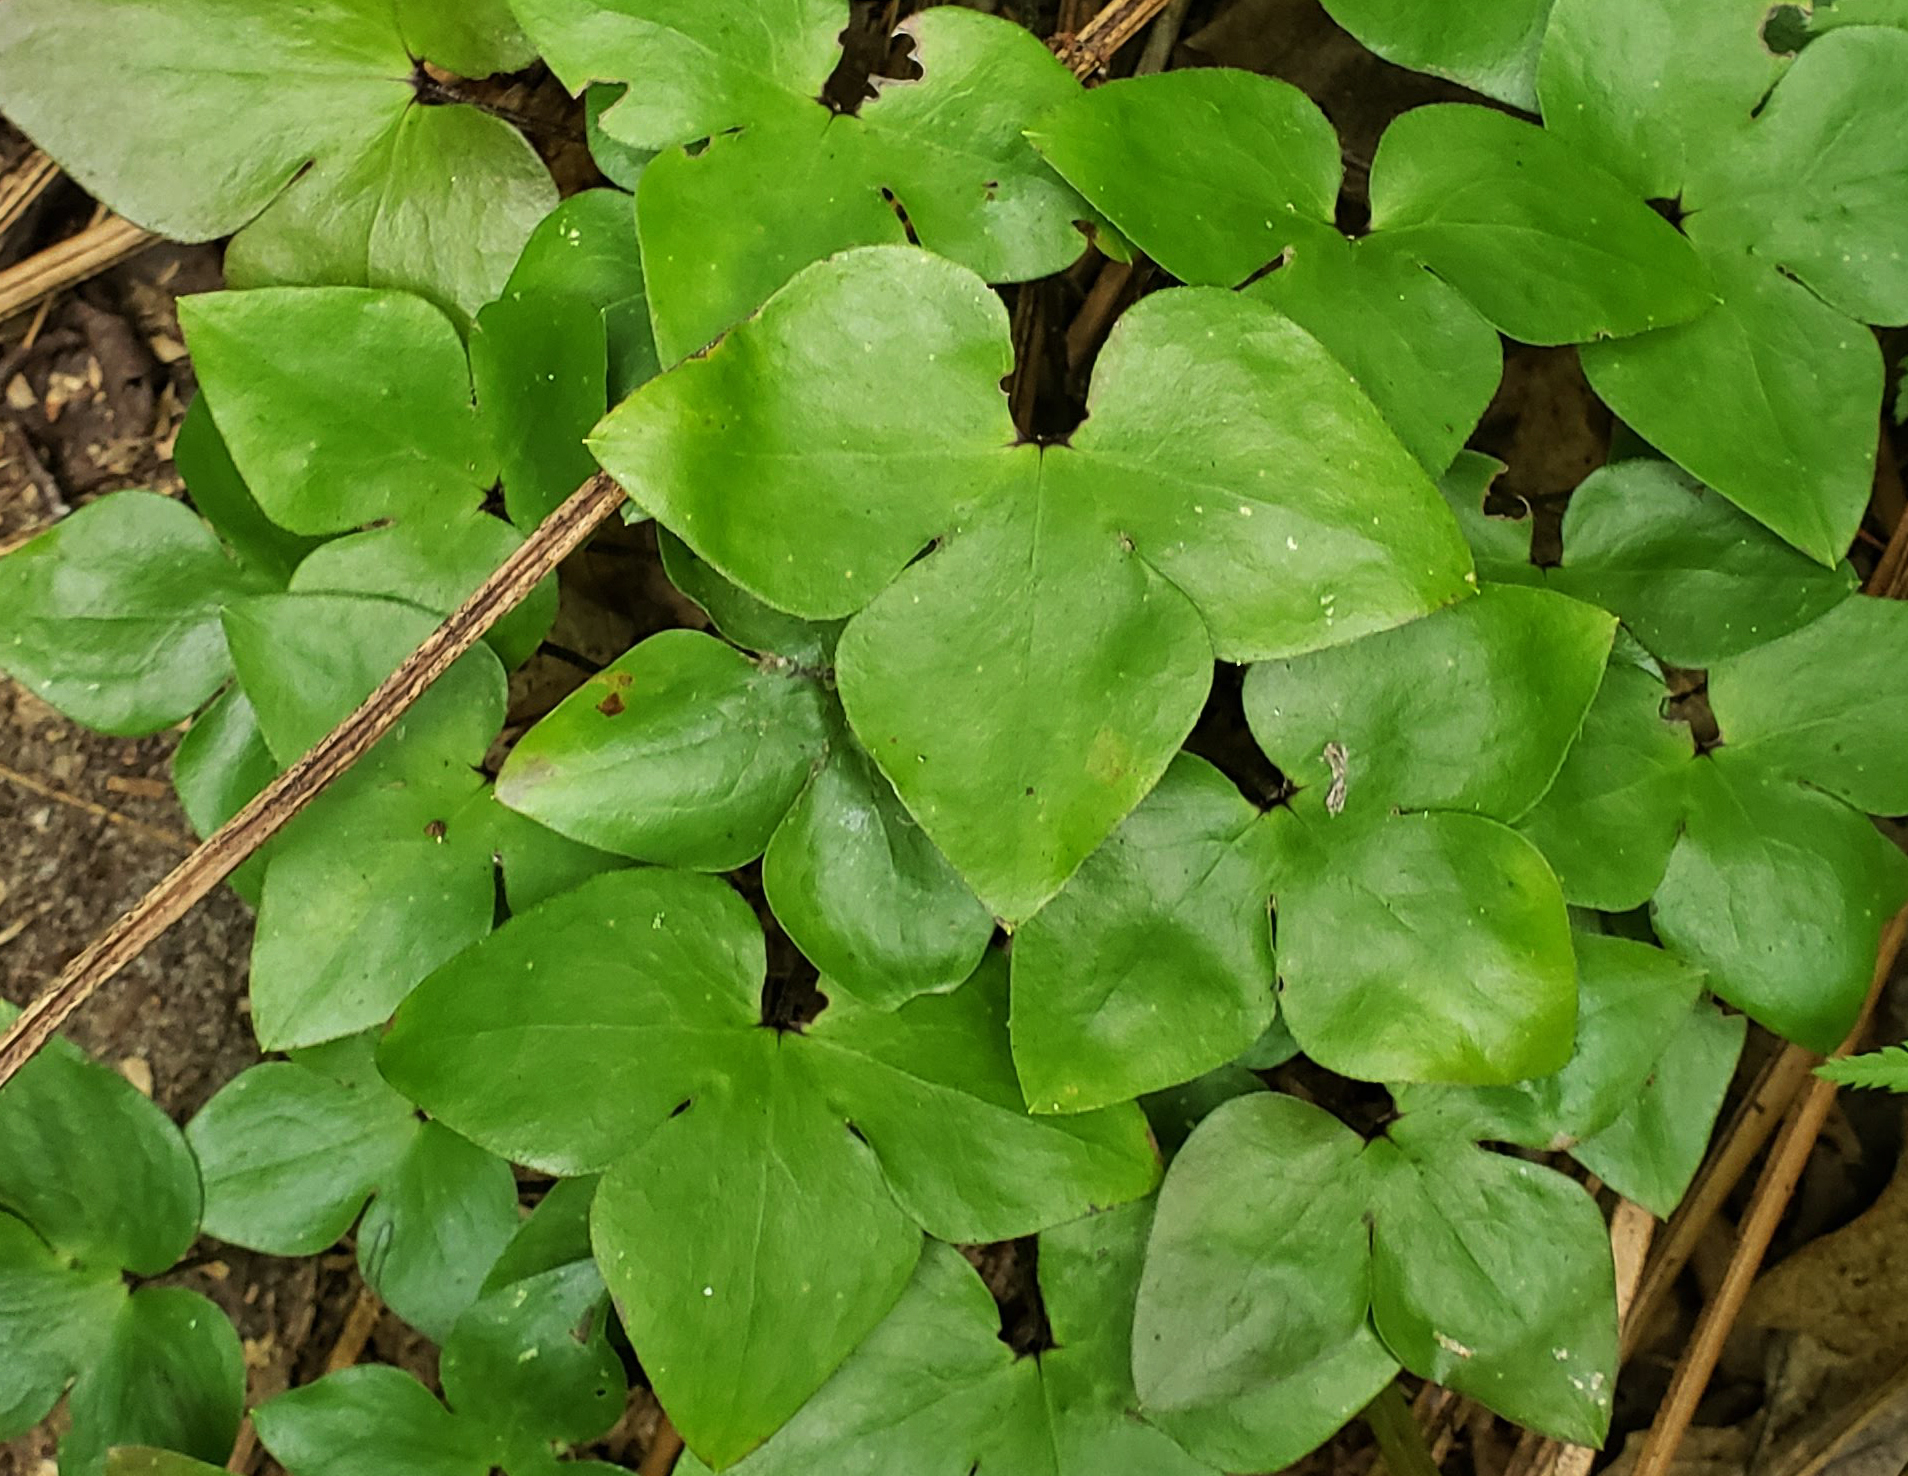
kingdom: Plantae
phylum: Tracheophyta
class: Magnoliopsida
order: Ranunculales
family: Ranunculaceae
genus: Hepatica
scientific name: Hepatica acutiloba
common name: Sharp-lobed hepatica
